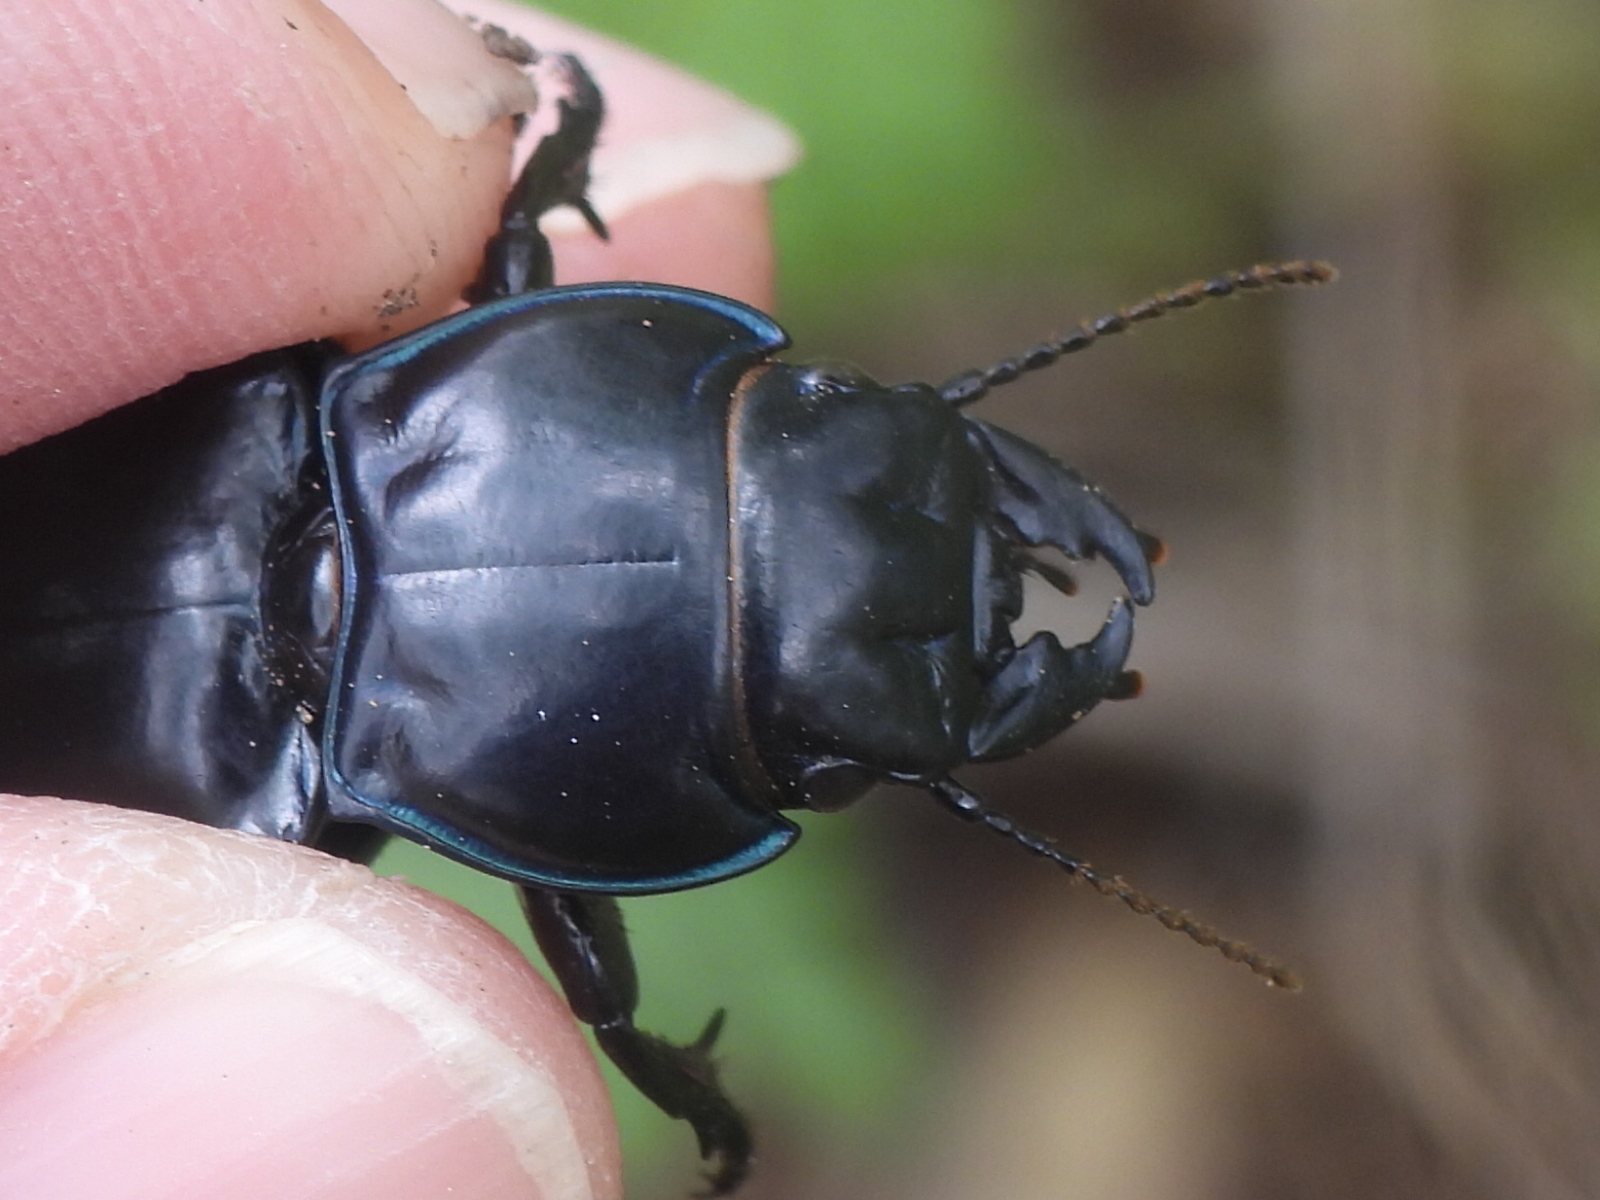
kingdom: Animalia
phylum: Arthropoda
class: Insecta
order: Coleoptera
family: Carabidae
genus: Pasimachus
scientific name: Pasimachus elongatus
